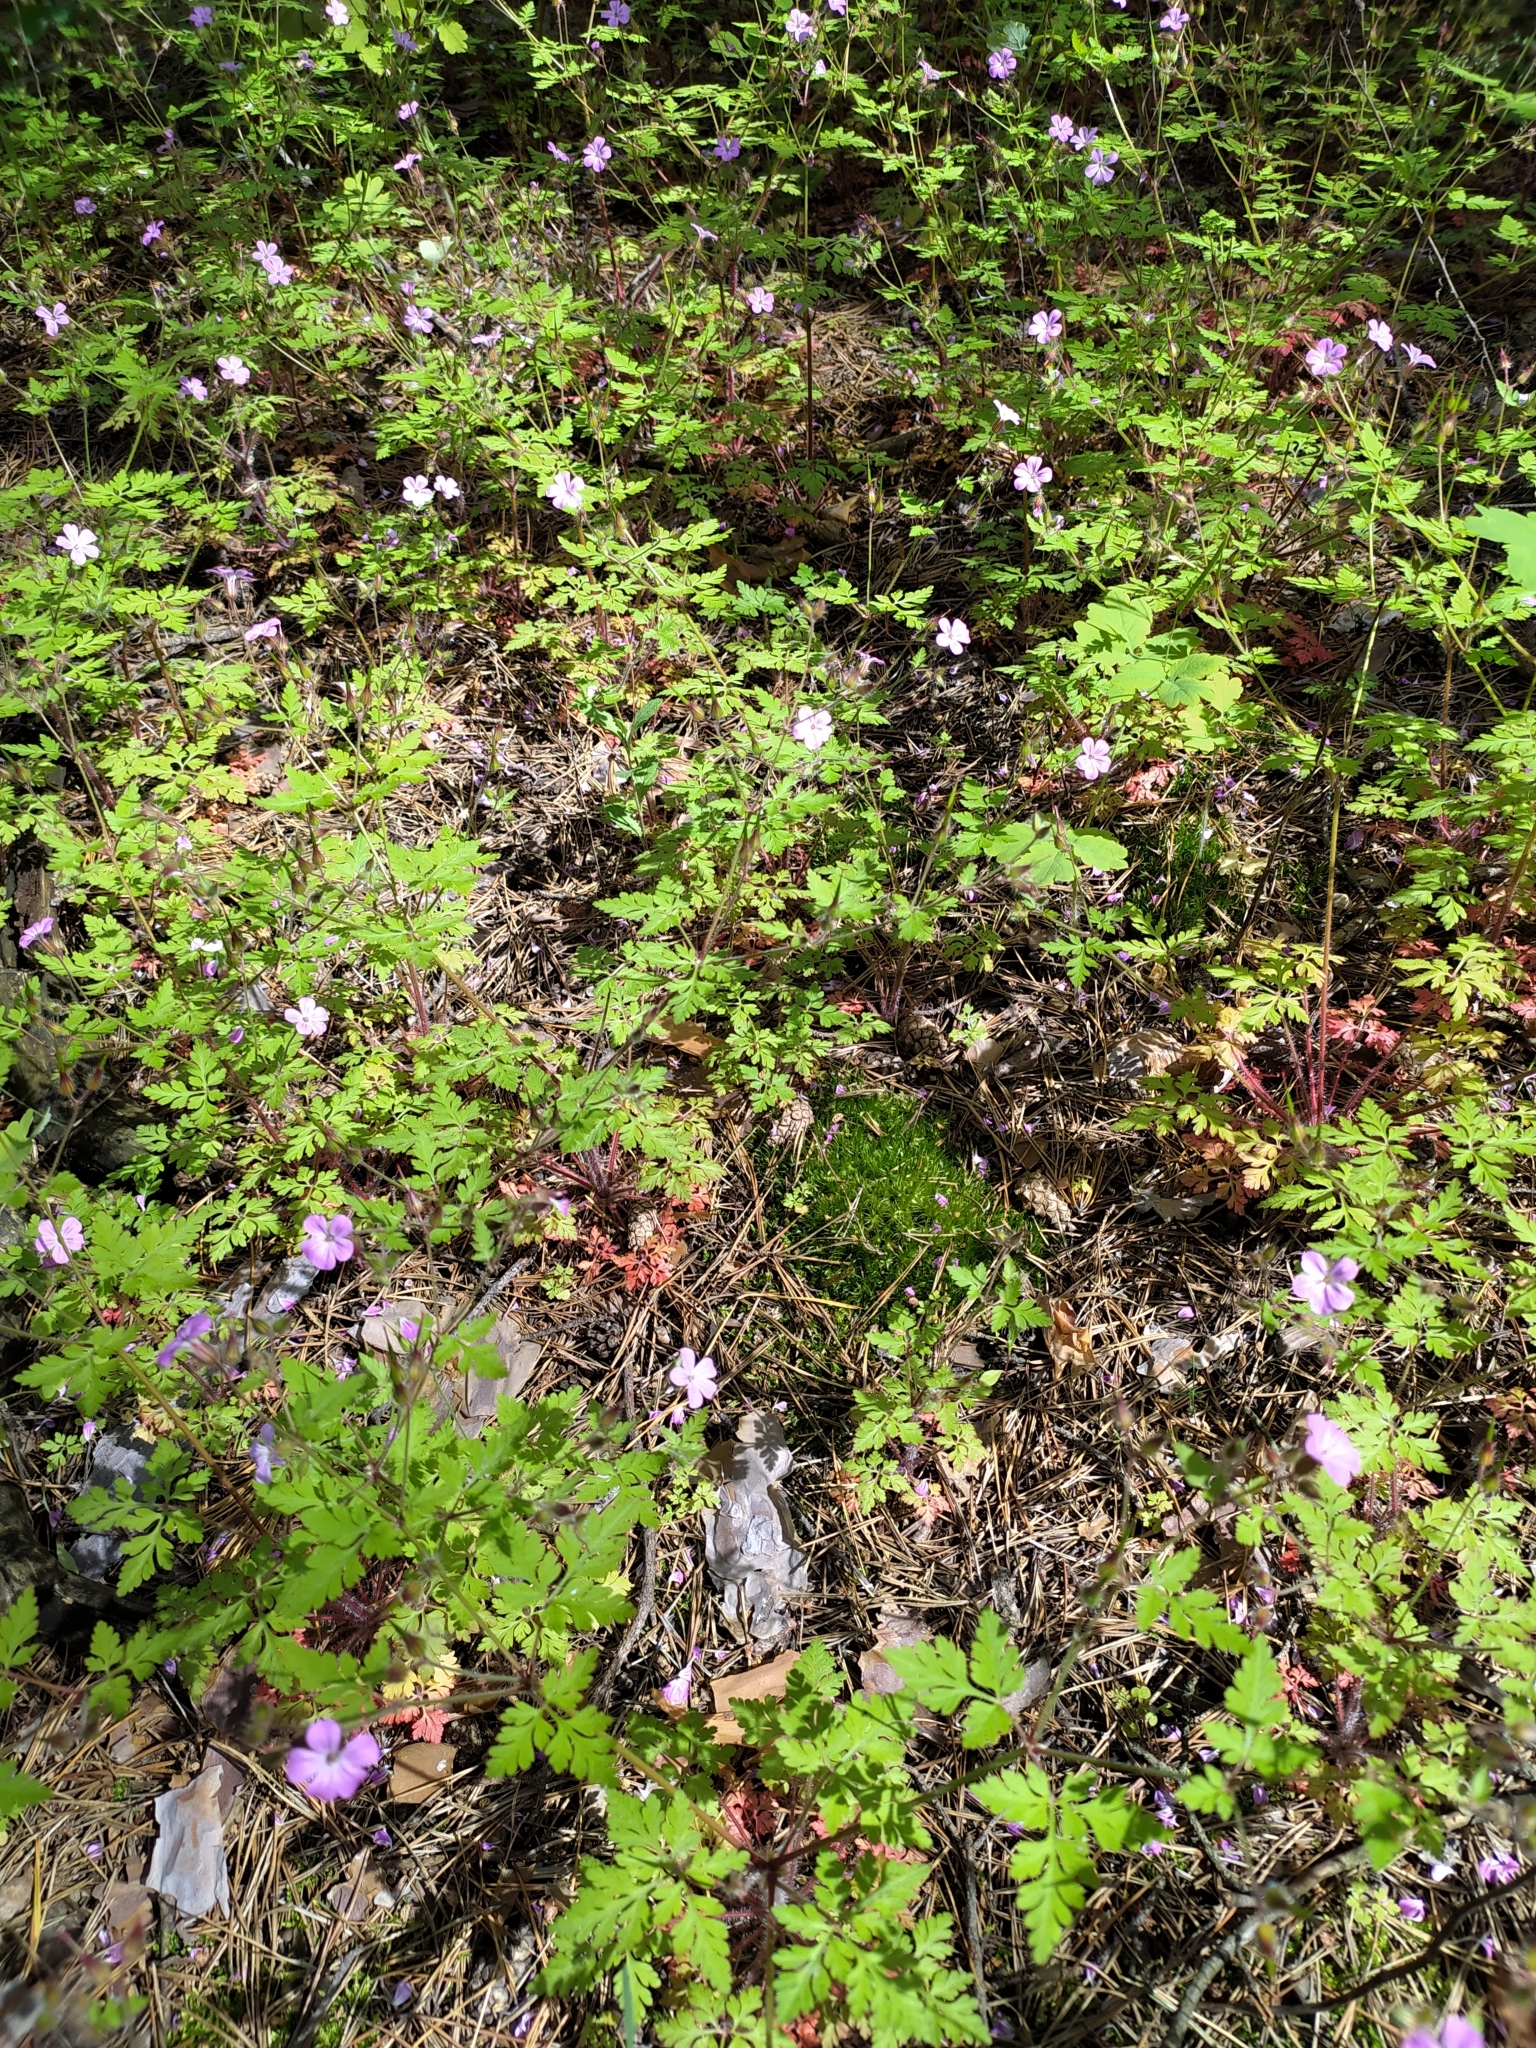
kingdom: Plantae
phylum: Tracheophyta
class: Magnoliopsida
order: Geraniales
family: Geraniaceae
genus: Geranium
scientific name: Geranium robertianum
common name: Herb-robert
